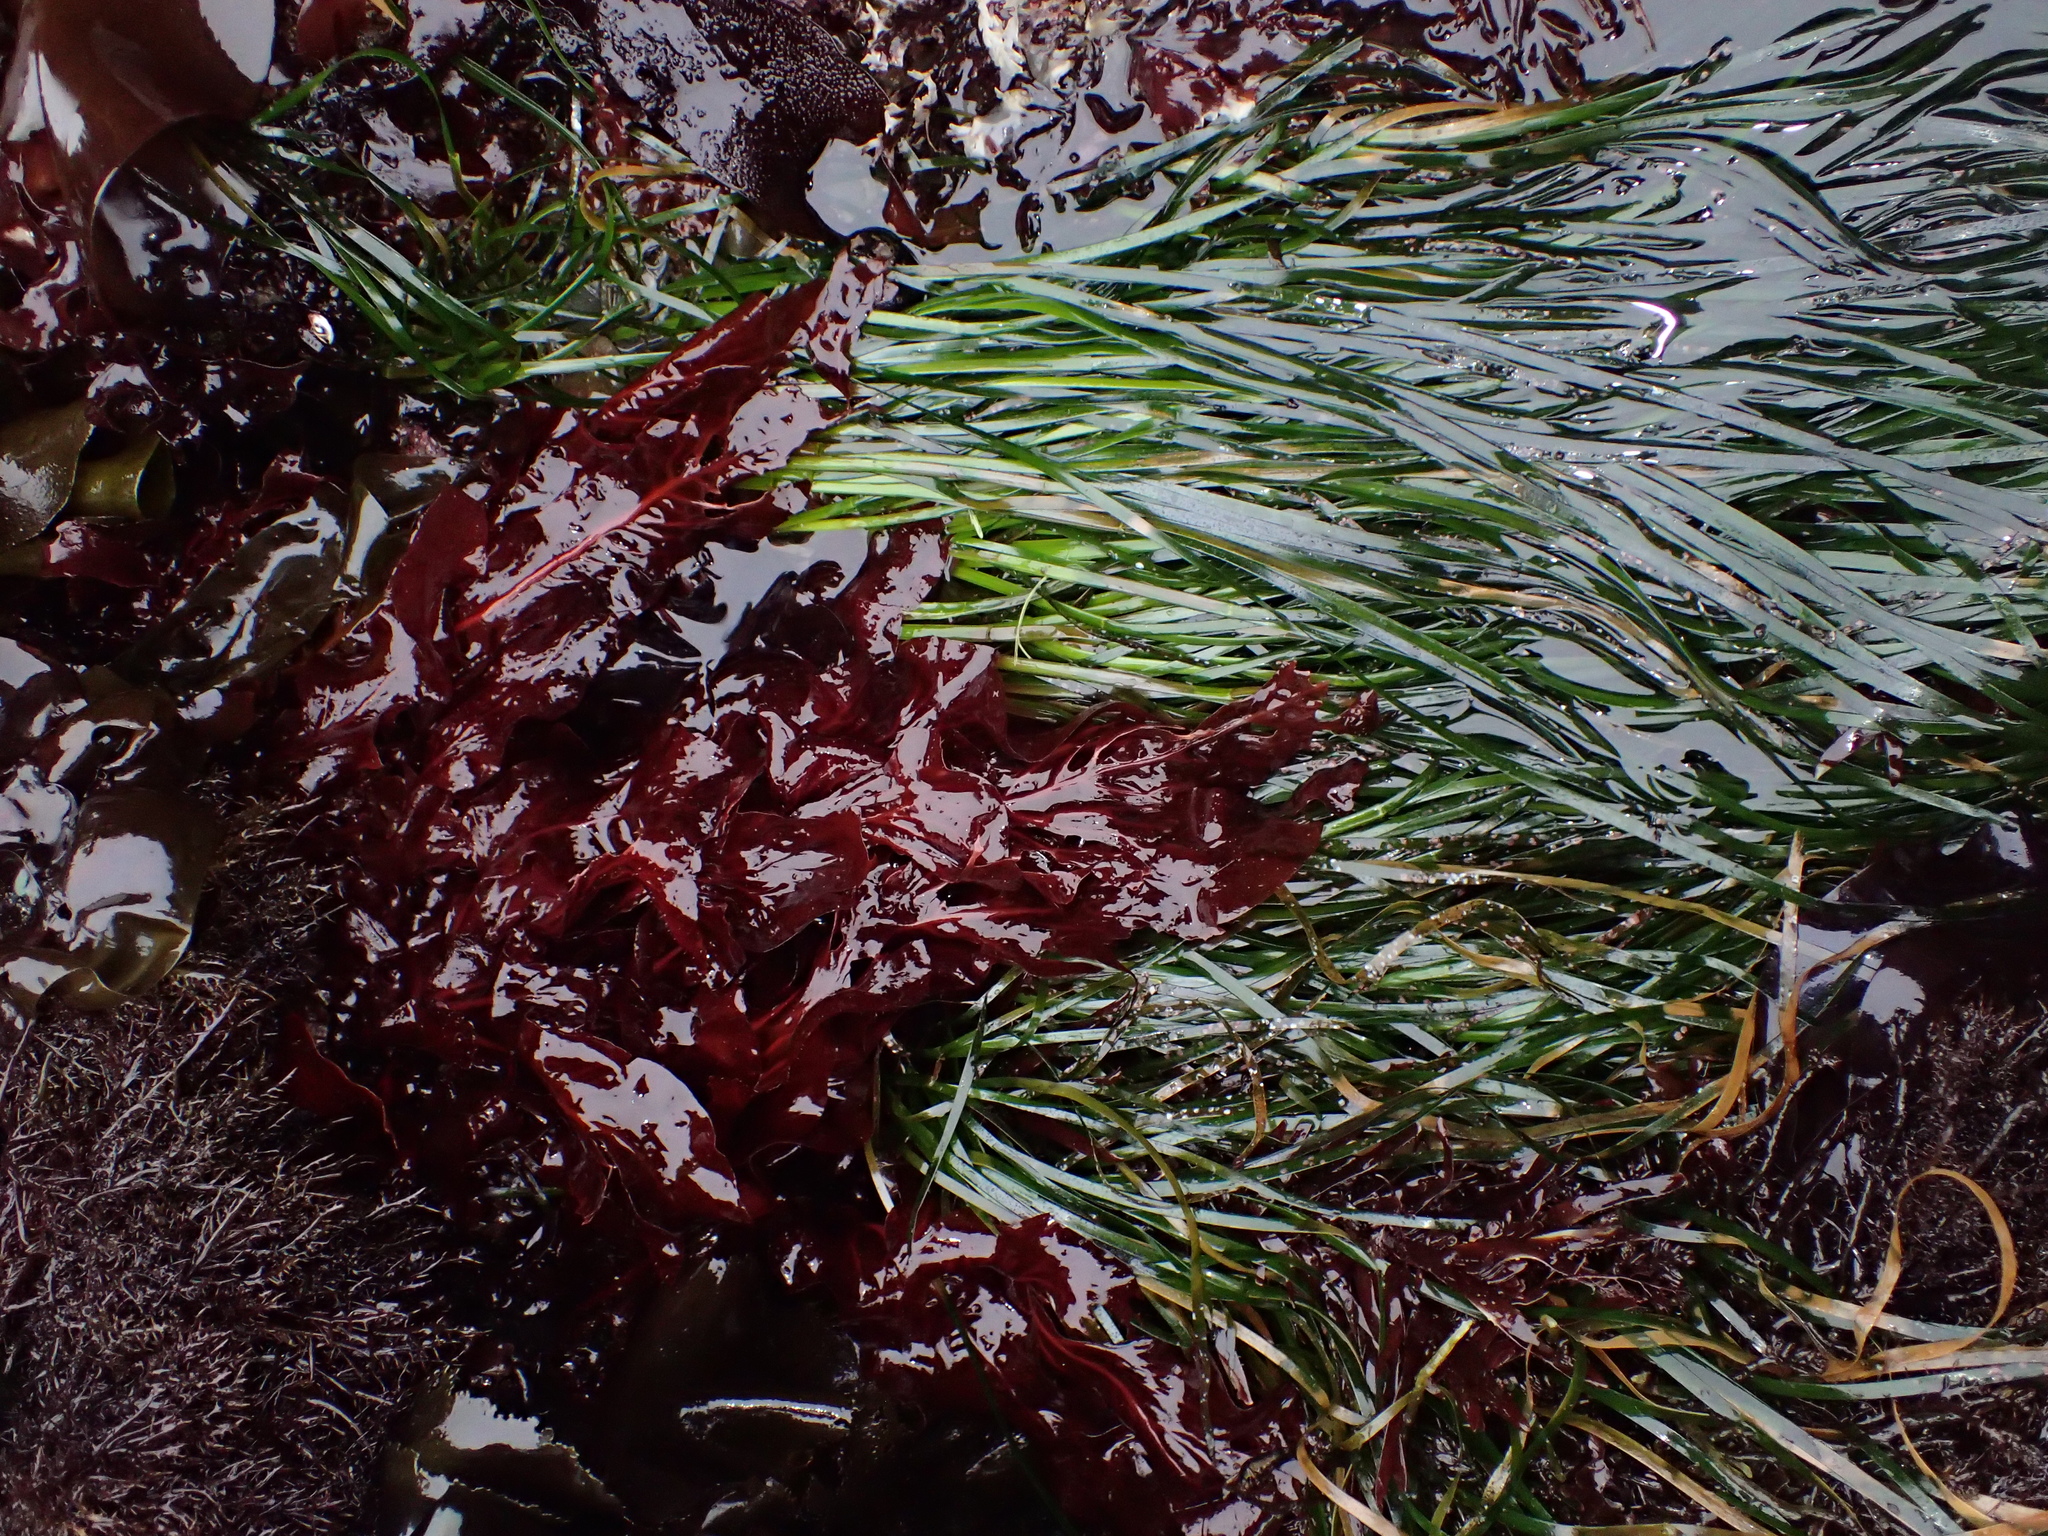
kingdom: Plantae
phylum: Rhodophyta
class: Florideophyceae
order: Gigartinales
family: Kallymeniaceae
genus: Erythrophyllum
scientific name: Erythrophyllum delesserioides
